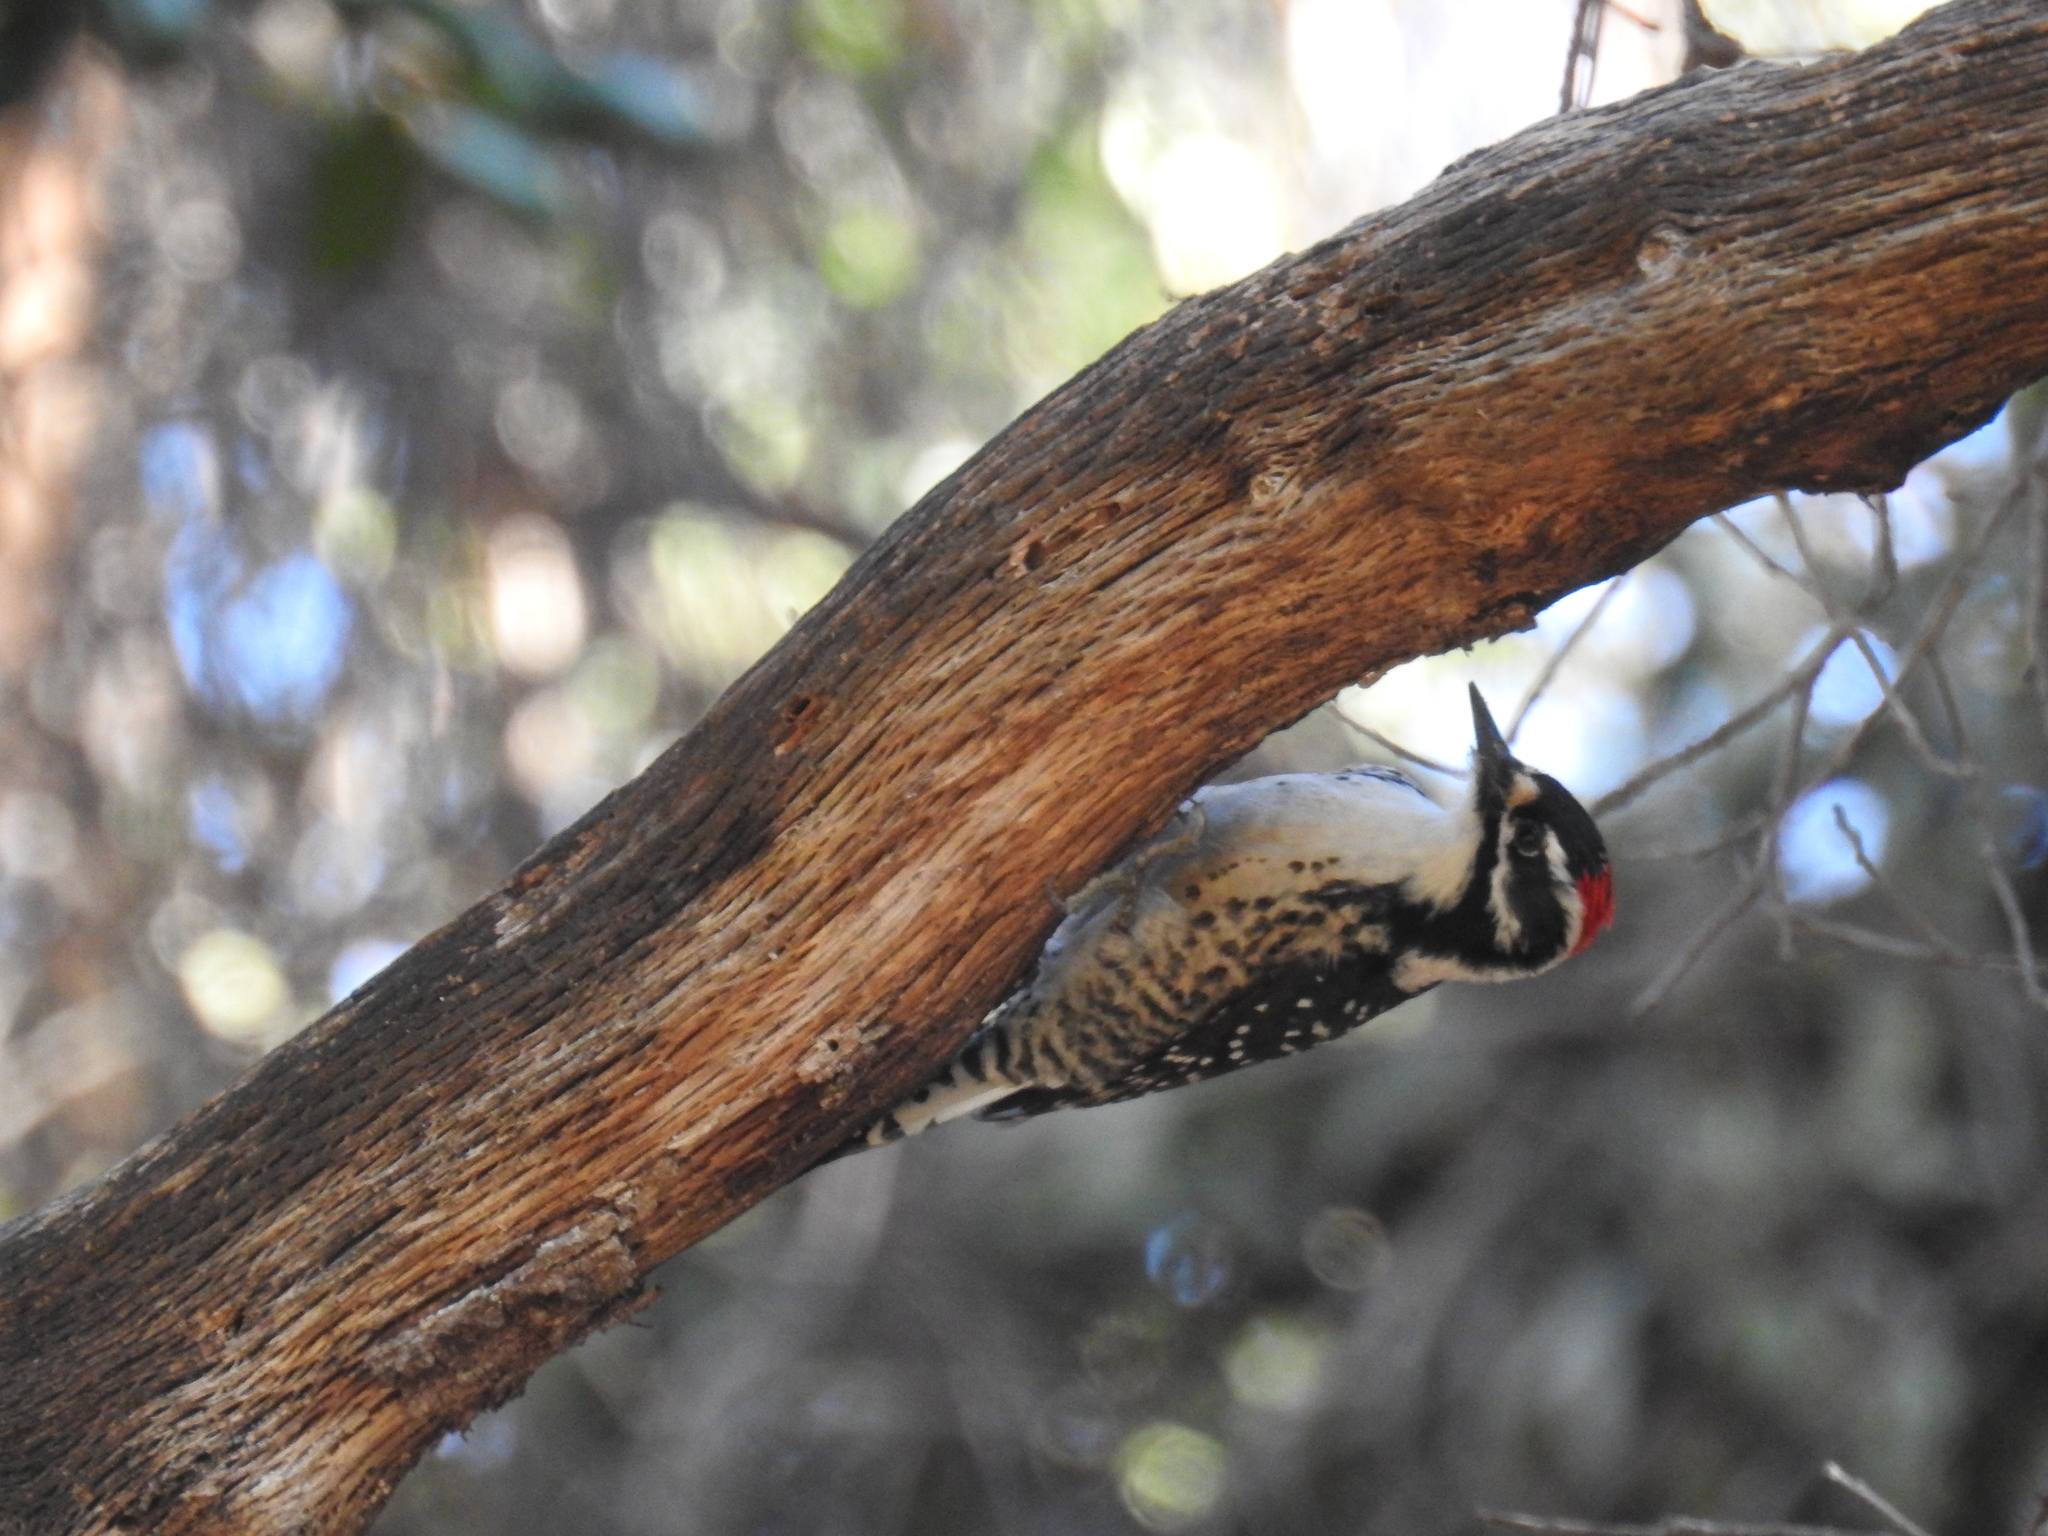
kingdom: Animalia
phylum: Chordata
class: Aves
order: Piciformes
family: Picidae
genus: Dryobates
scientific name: Dryobates nuttallii
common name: Nuttall's woodpecker
